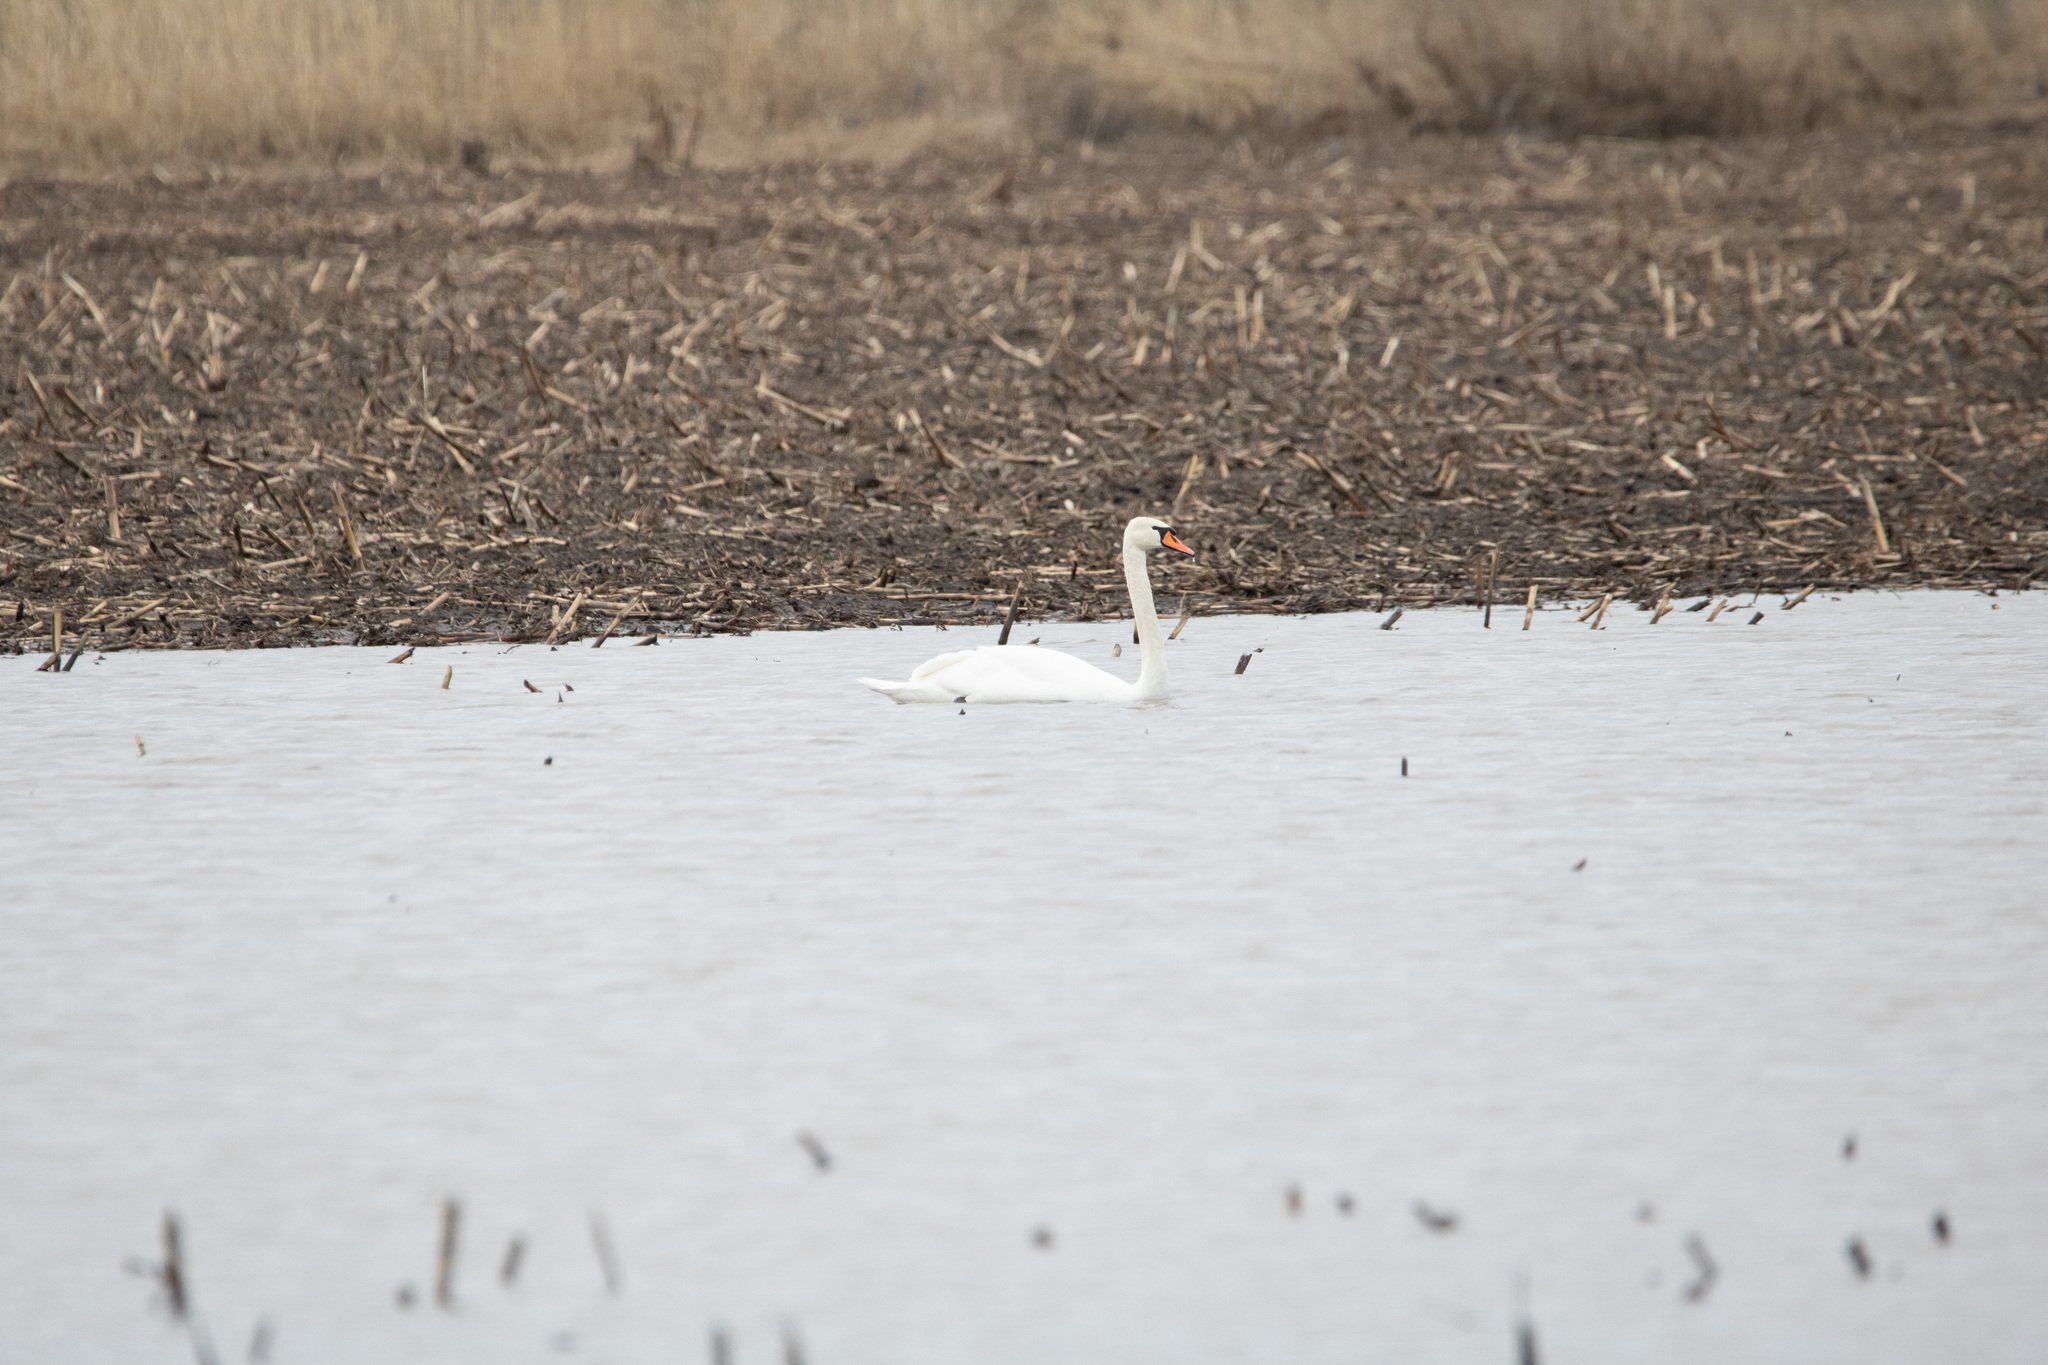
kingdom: Animalia
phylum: Chordata
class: Aves
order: Anseriformes
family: Anatidae
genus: Cygnus
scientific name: Cygnus olor
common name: Mute swan
